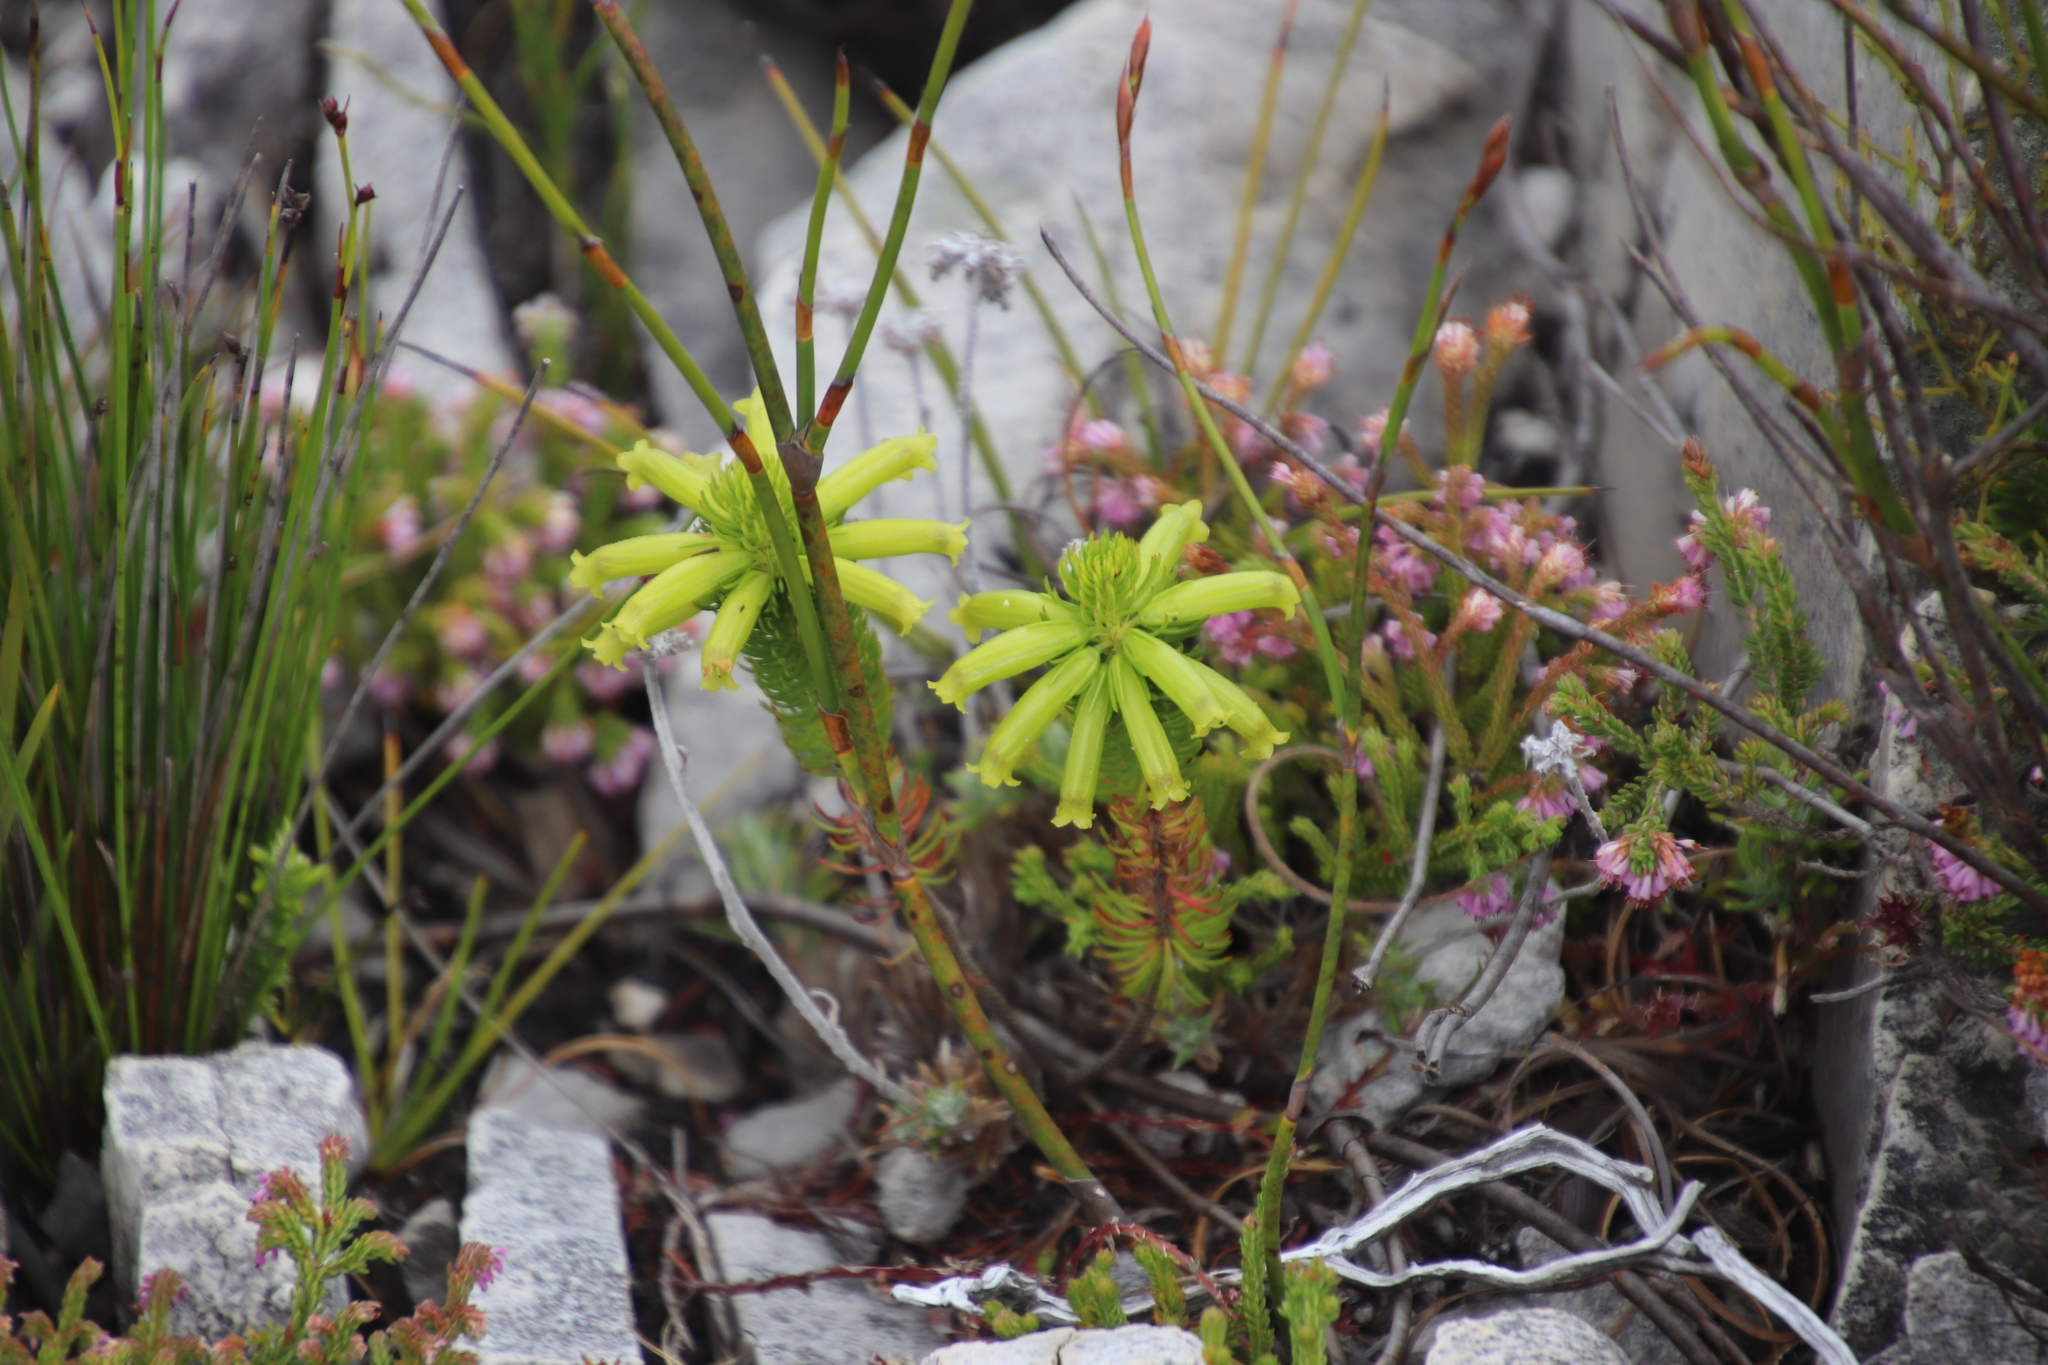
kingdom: Plantae
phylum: Tracheophyta
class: Magnoliopsida
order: Ericales
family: Ericaceae
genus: Erica
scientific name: Erica viscaria
